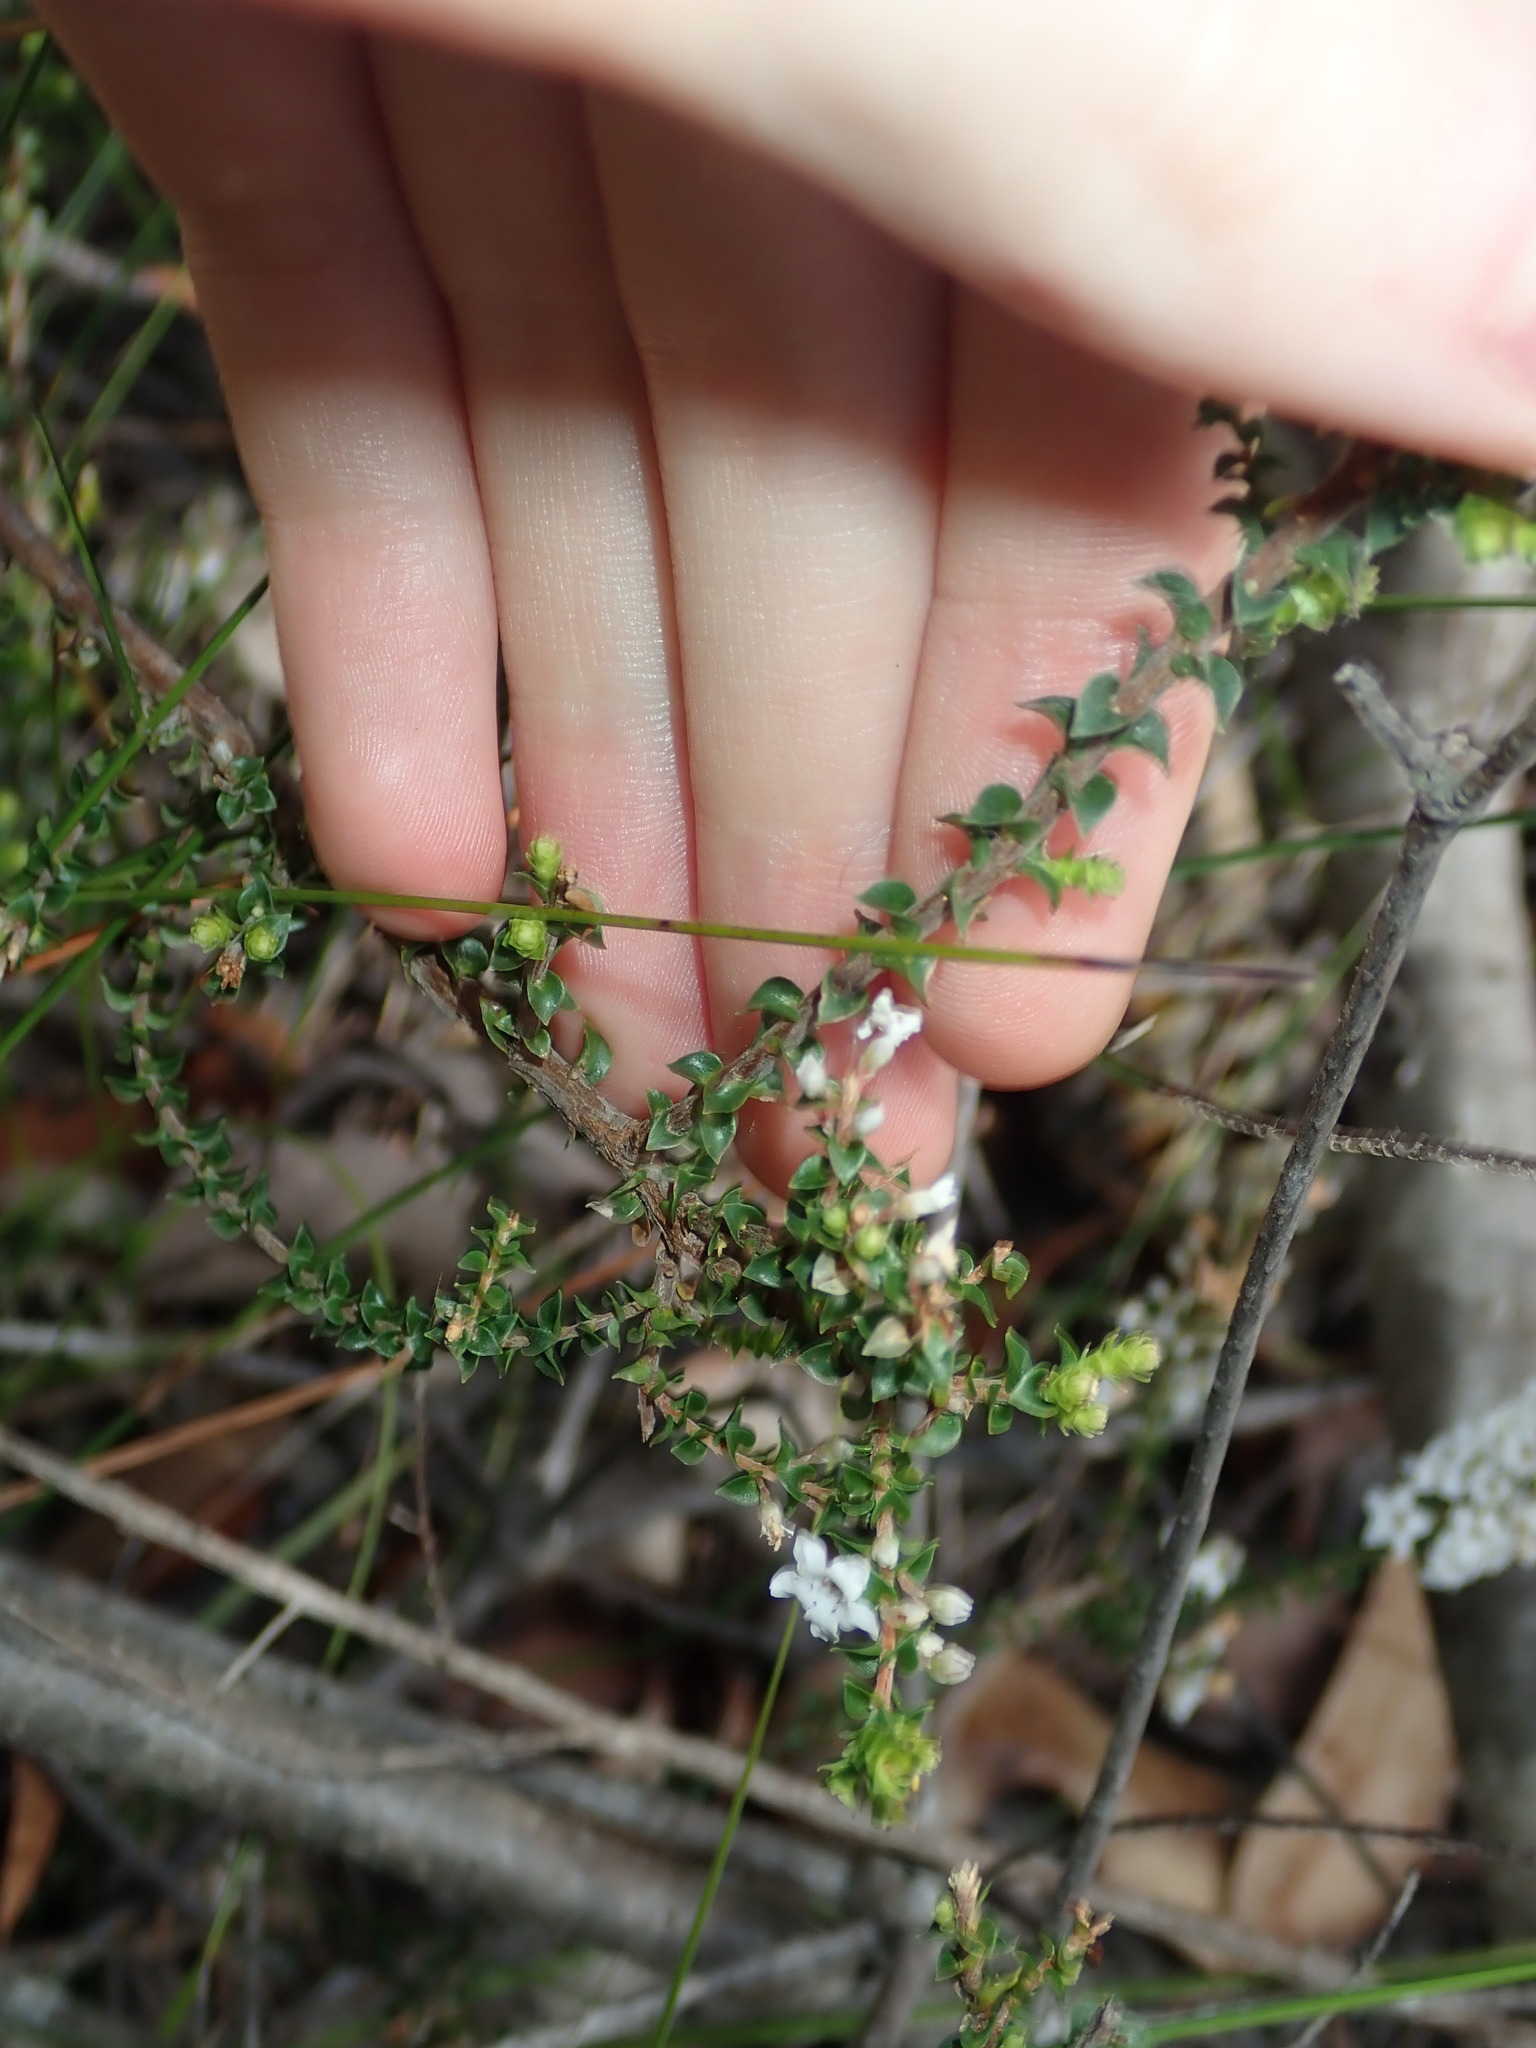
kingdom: Plantae
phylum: Tracheophyta
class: Magnoliopsida
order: Ericales
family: Ericaceae
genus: Epacris
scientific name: Epacris microphylla
